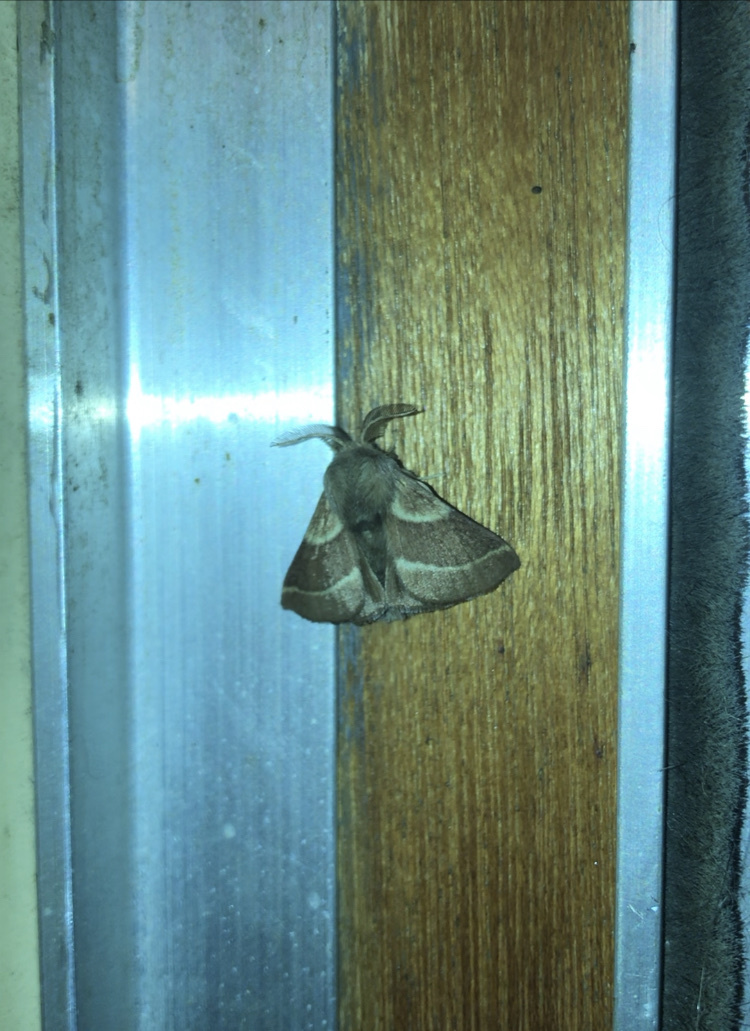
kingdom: Animalia
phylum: Arthropoda
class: Insecta
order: Lepidoptera
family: Lasiocampidae
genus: Malacosoma
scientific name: Malacosoma californica
